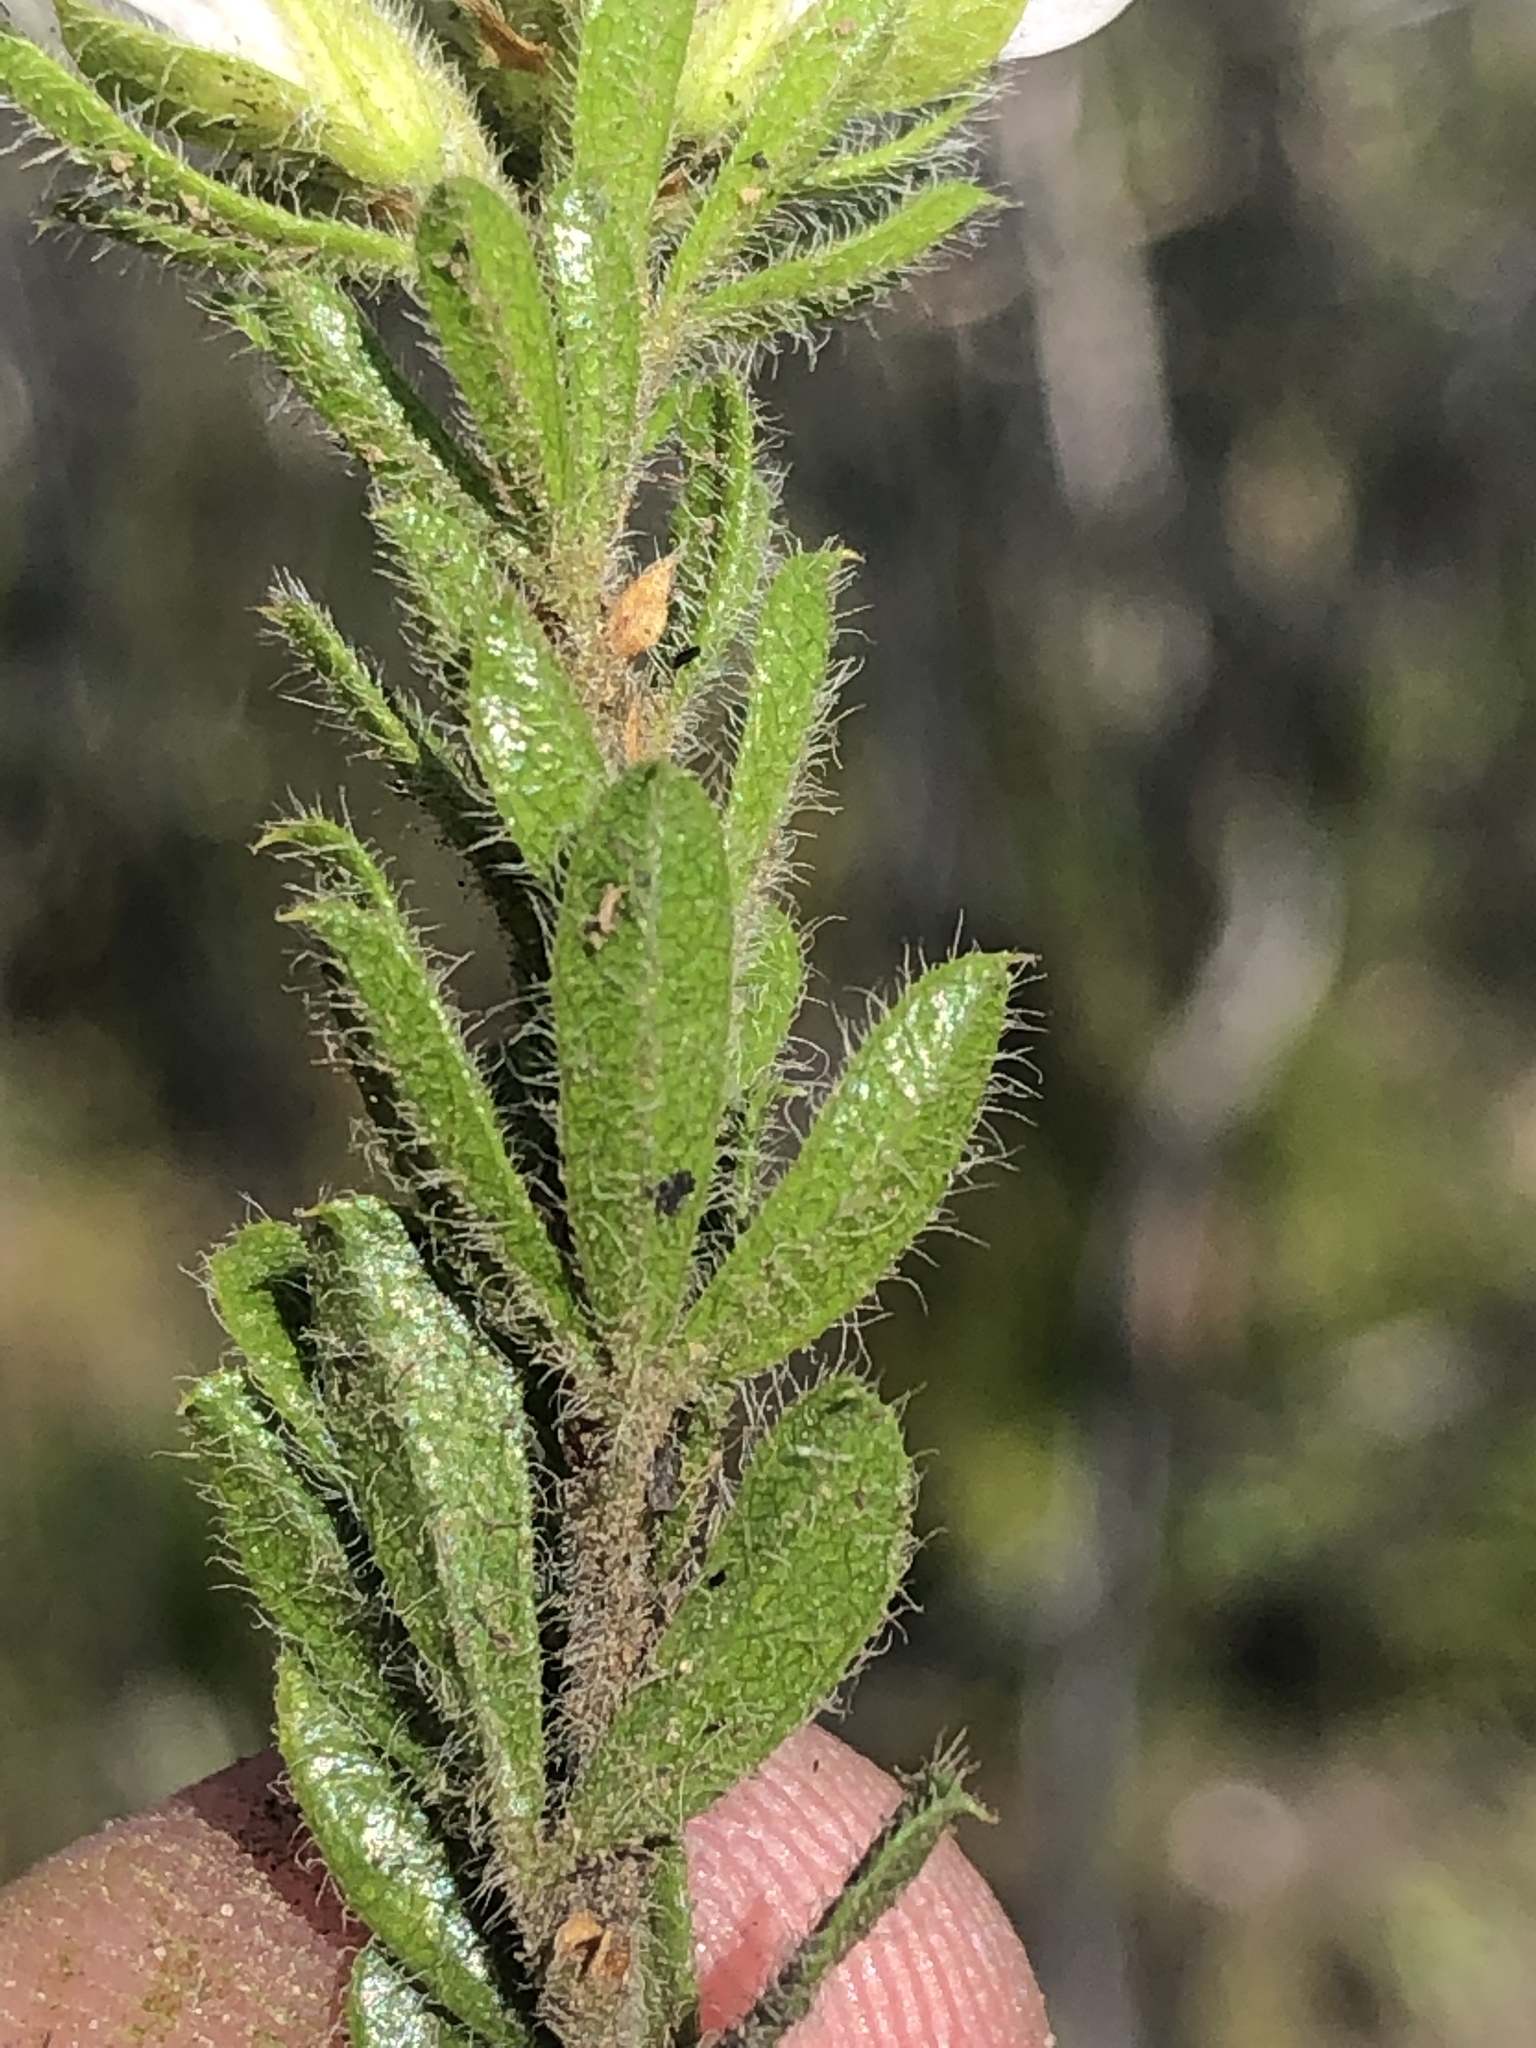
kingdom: Plantae
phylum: Tracheophyta
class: Magnoliopsida
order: Fabales
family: Fabaceae
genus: Psoralea
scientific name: Psoralea saxosa
